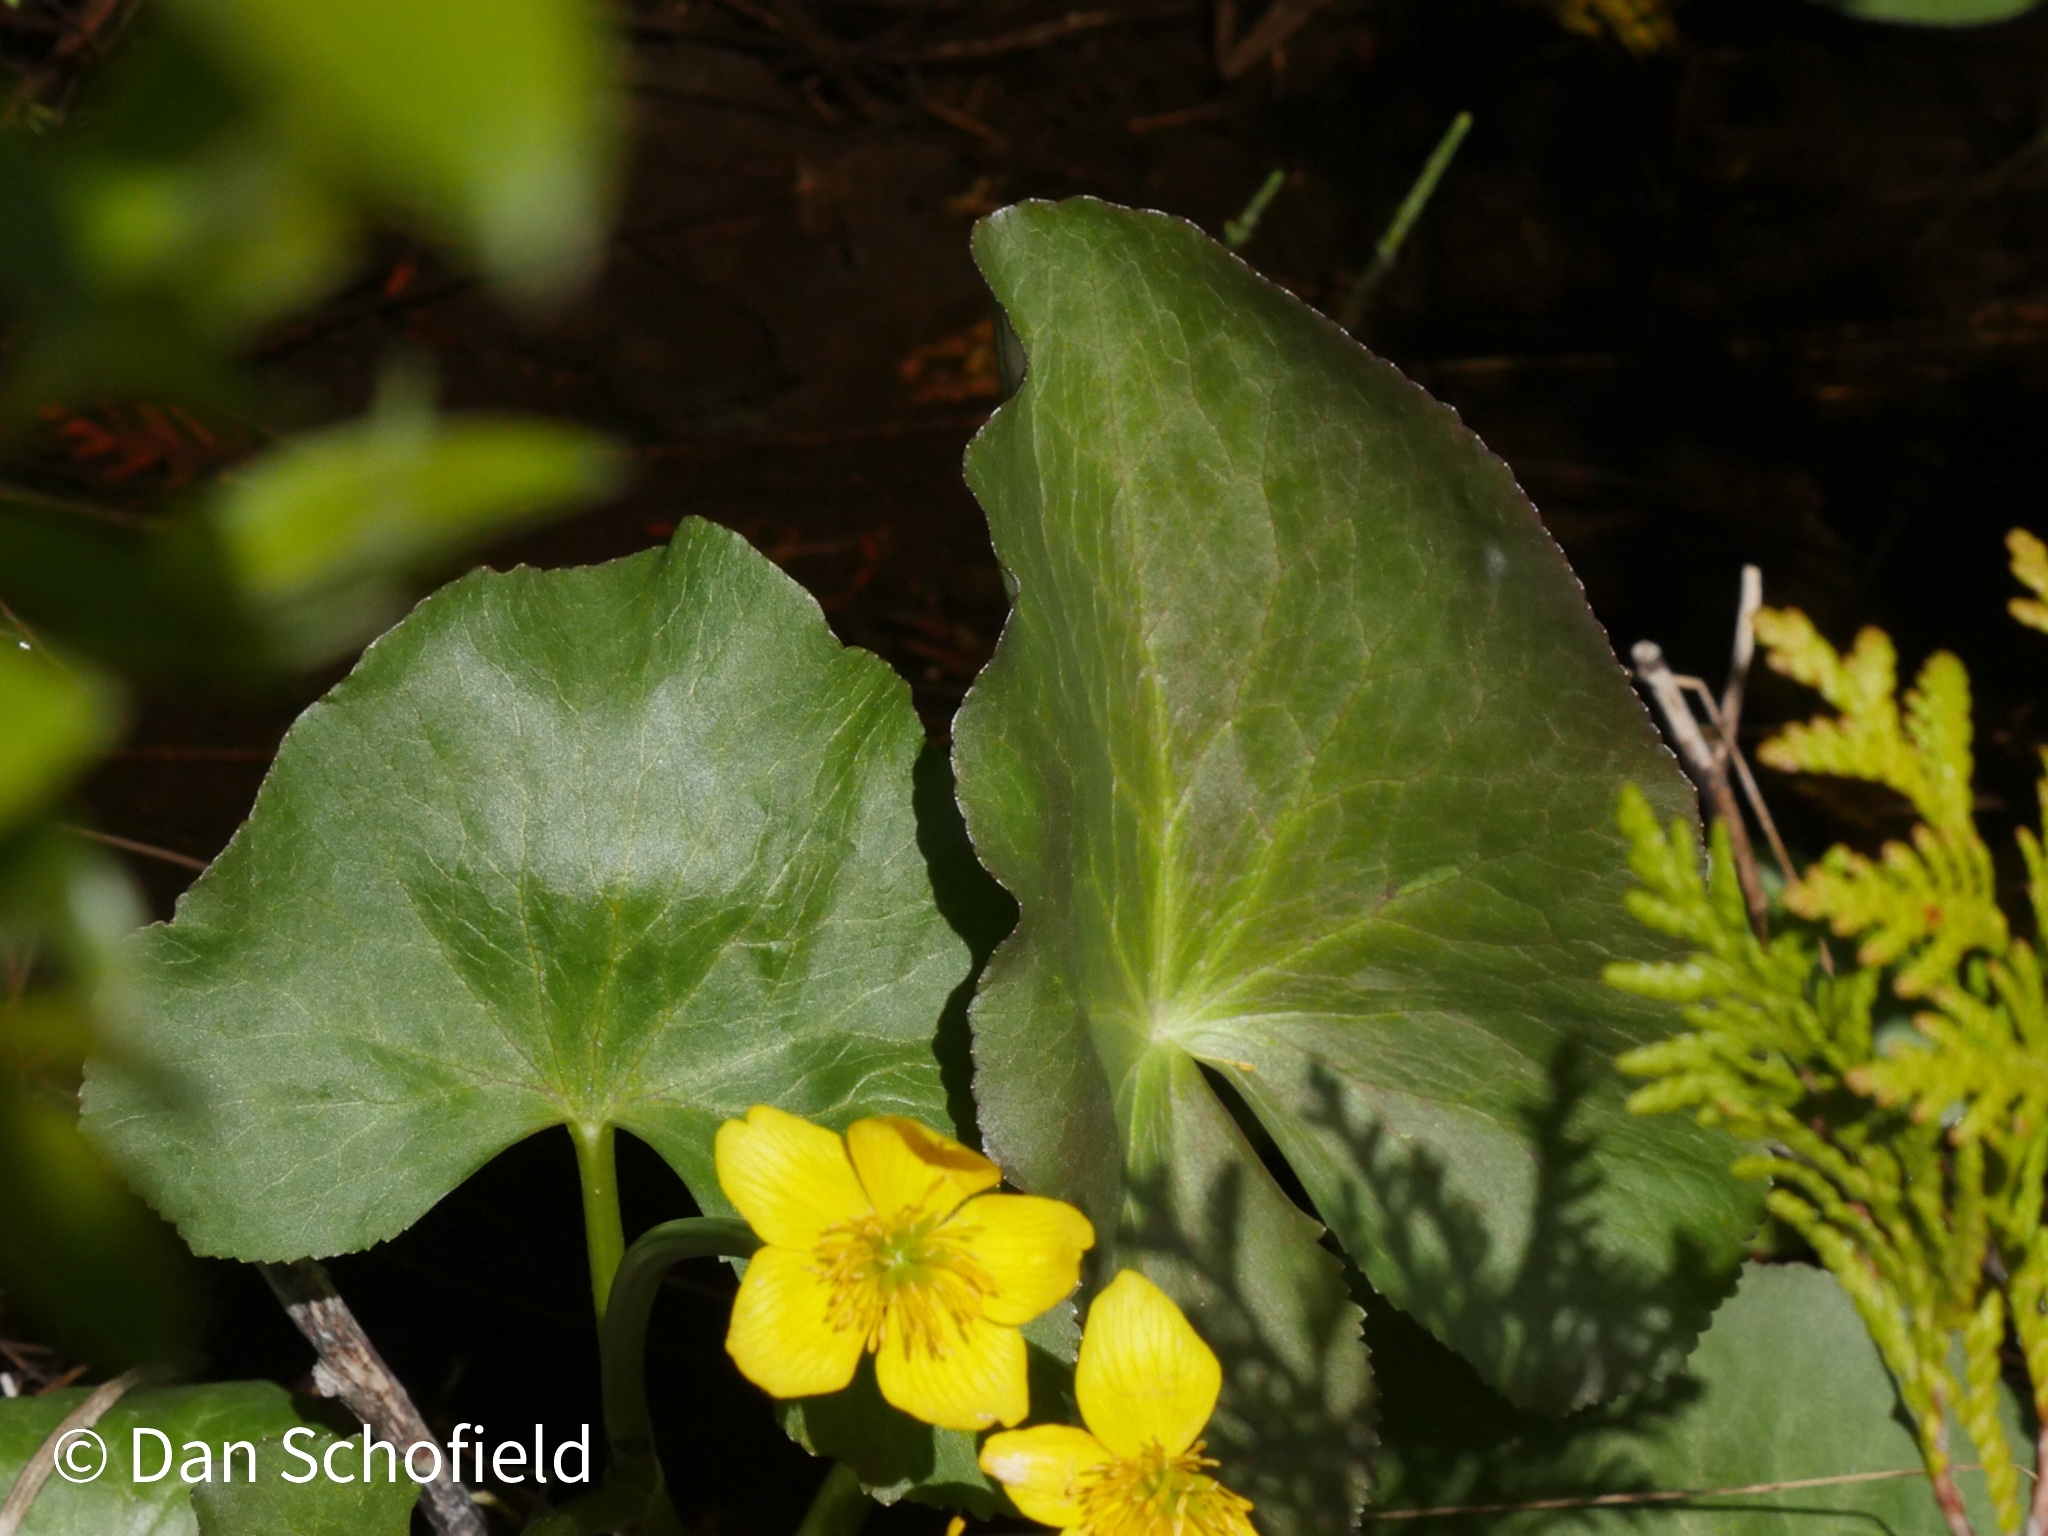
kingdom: Plantae
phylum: Tracheophyta
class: Magnoliopsida
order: Ranunculales
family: Ranunculaceae
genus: Caltha
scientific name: Caltha palustris
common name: Marsh marigold
